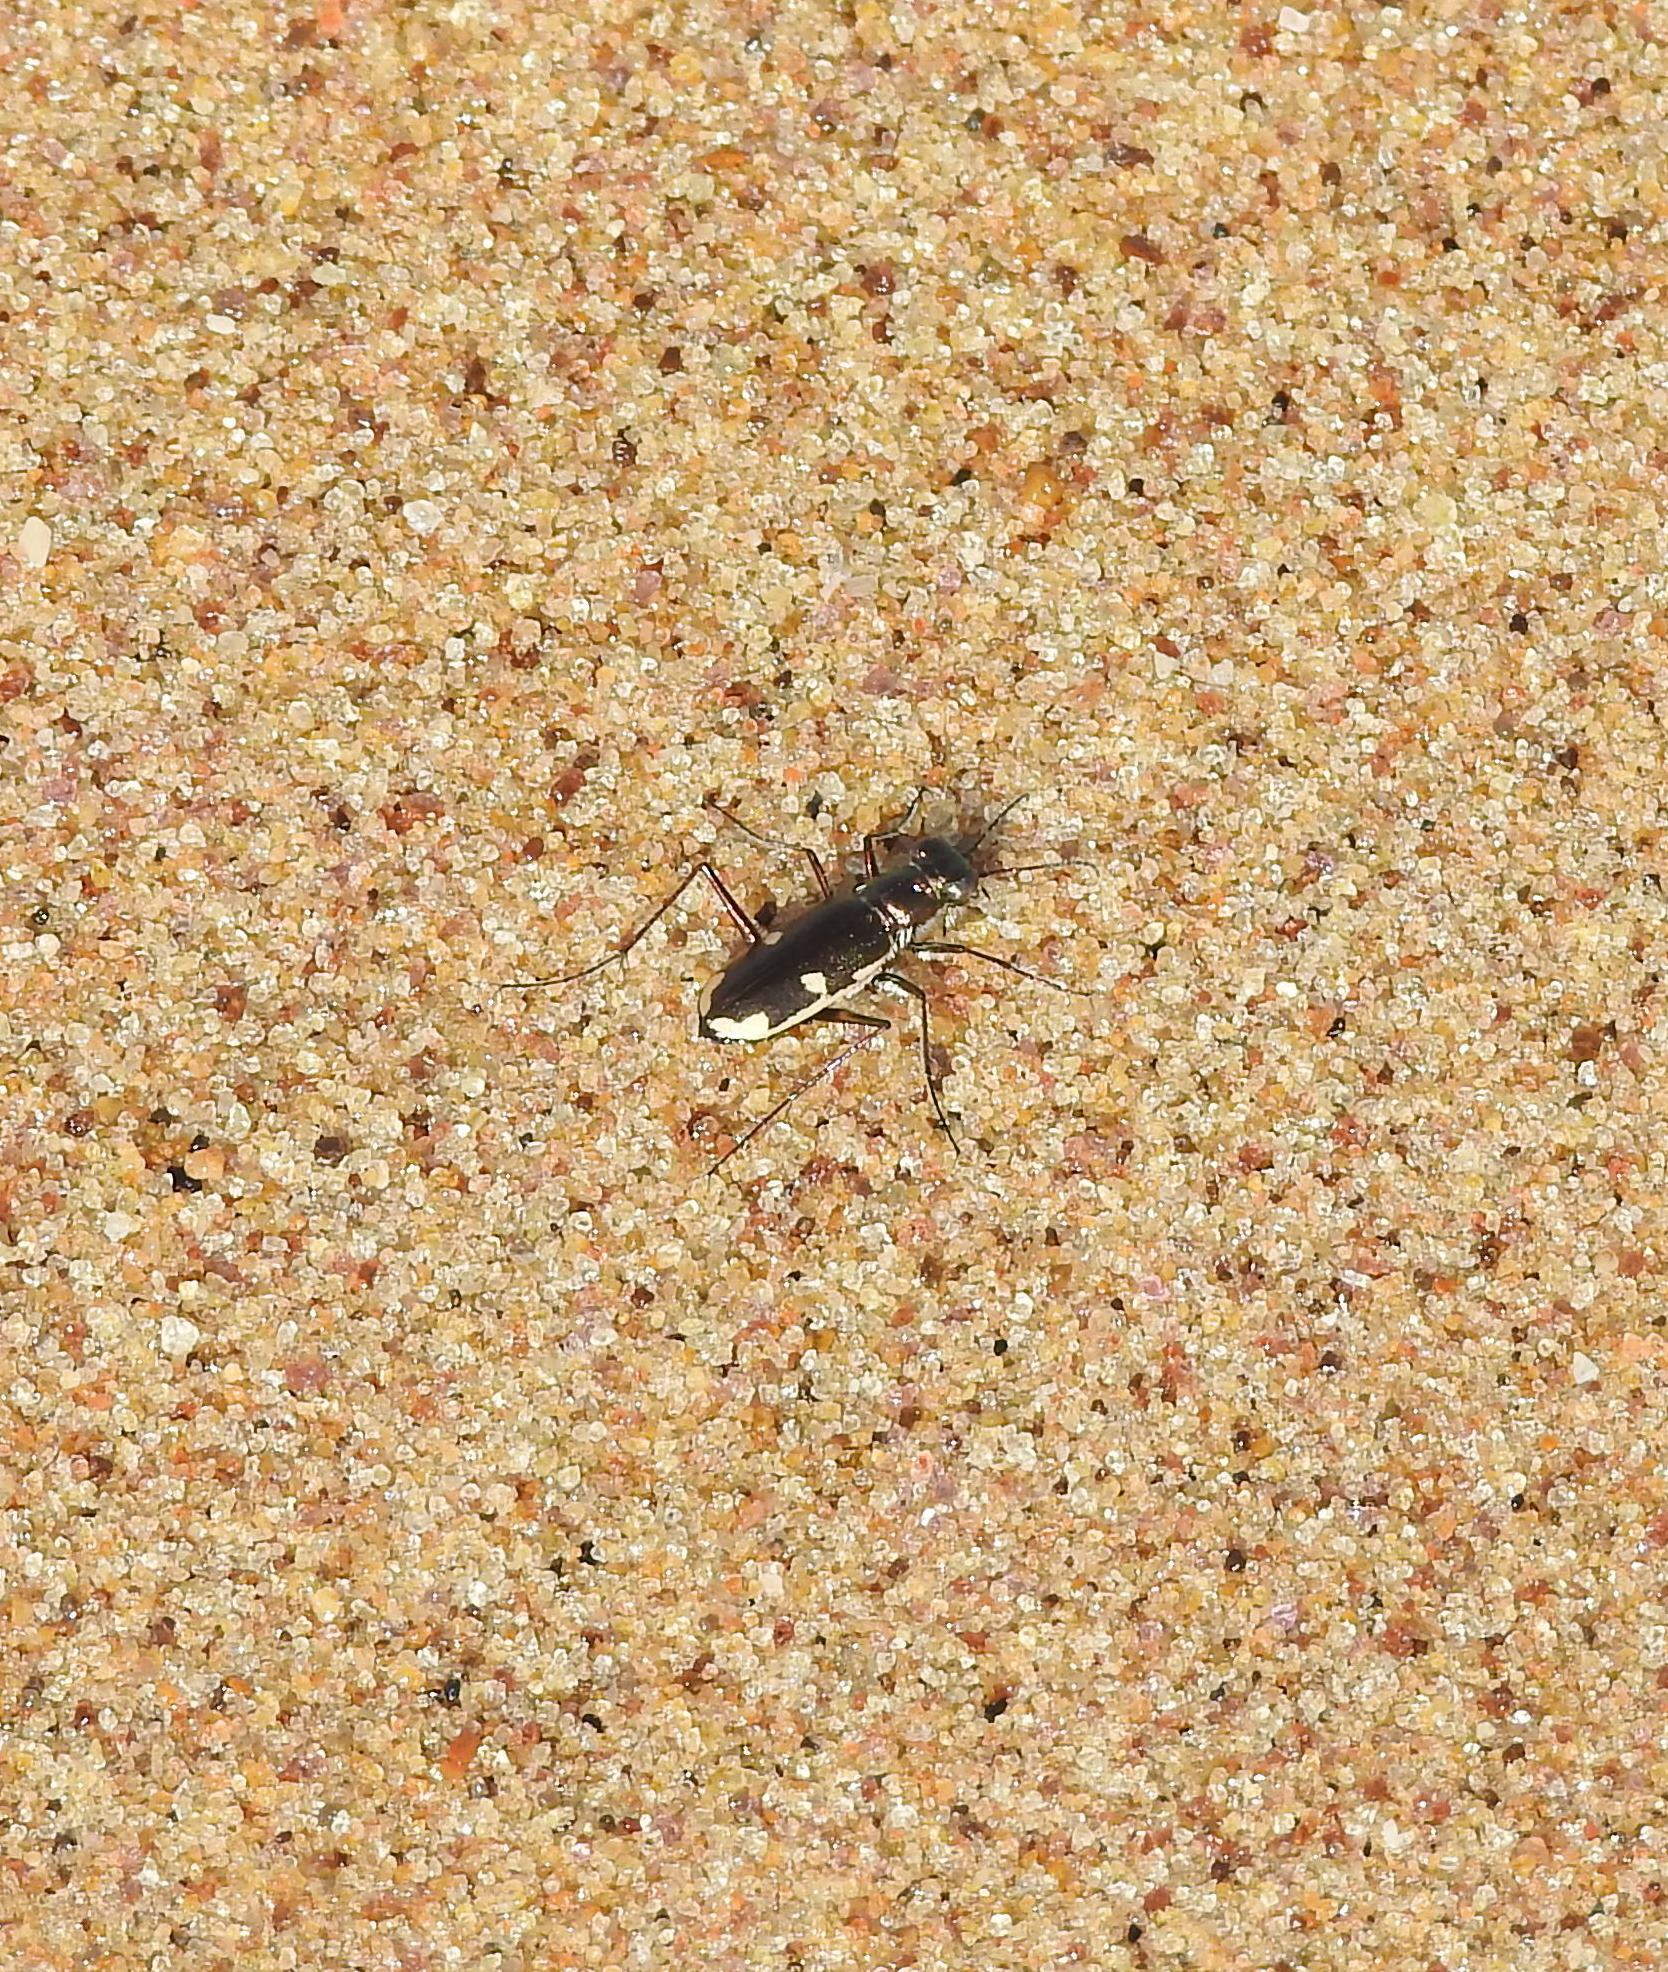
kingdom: Animalia
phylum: Arthropoda
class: Insecta
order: Coleoptera
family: Carabidae
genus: Hypaetha
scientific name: Hypaetha biramosa
